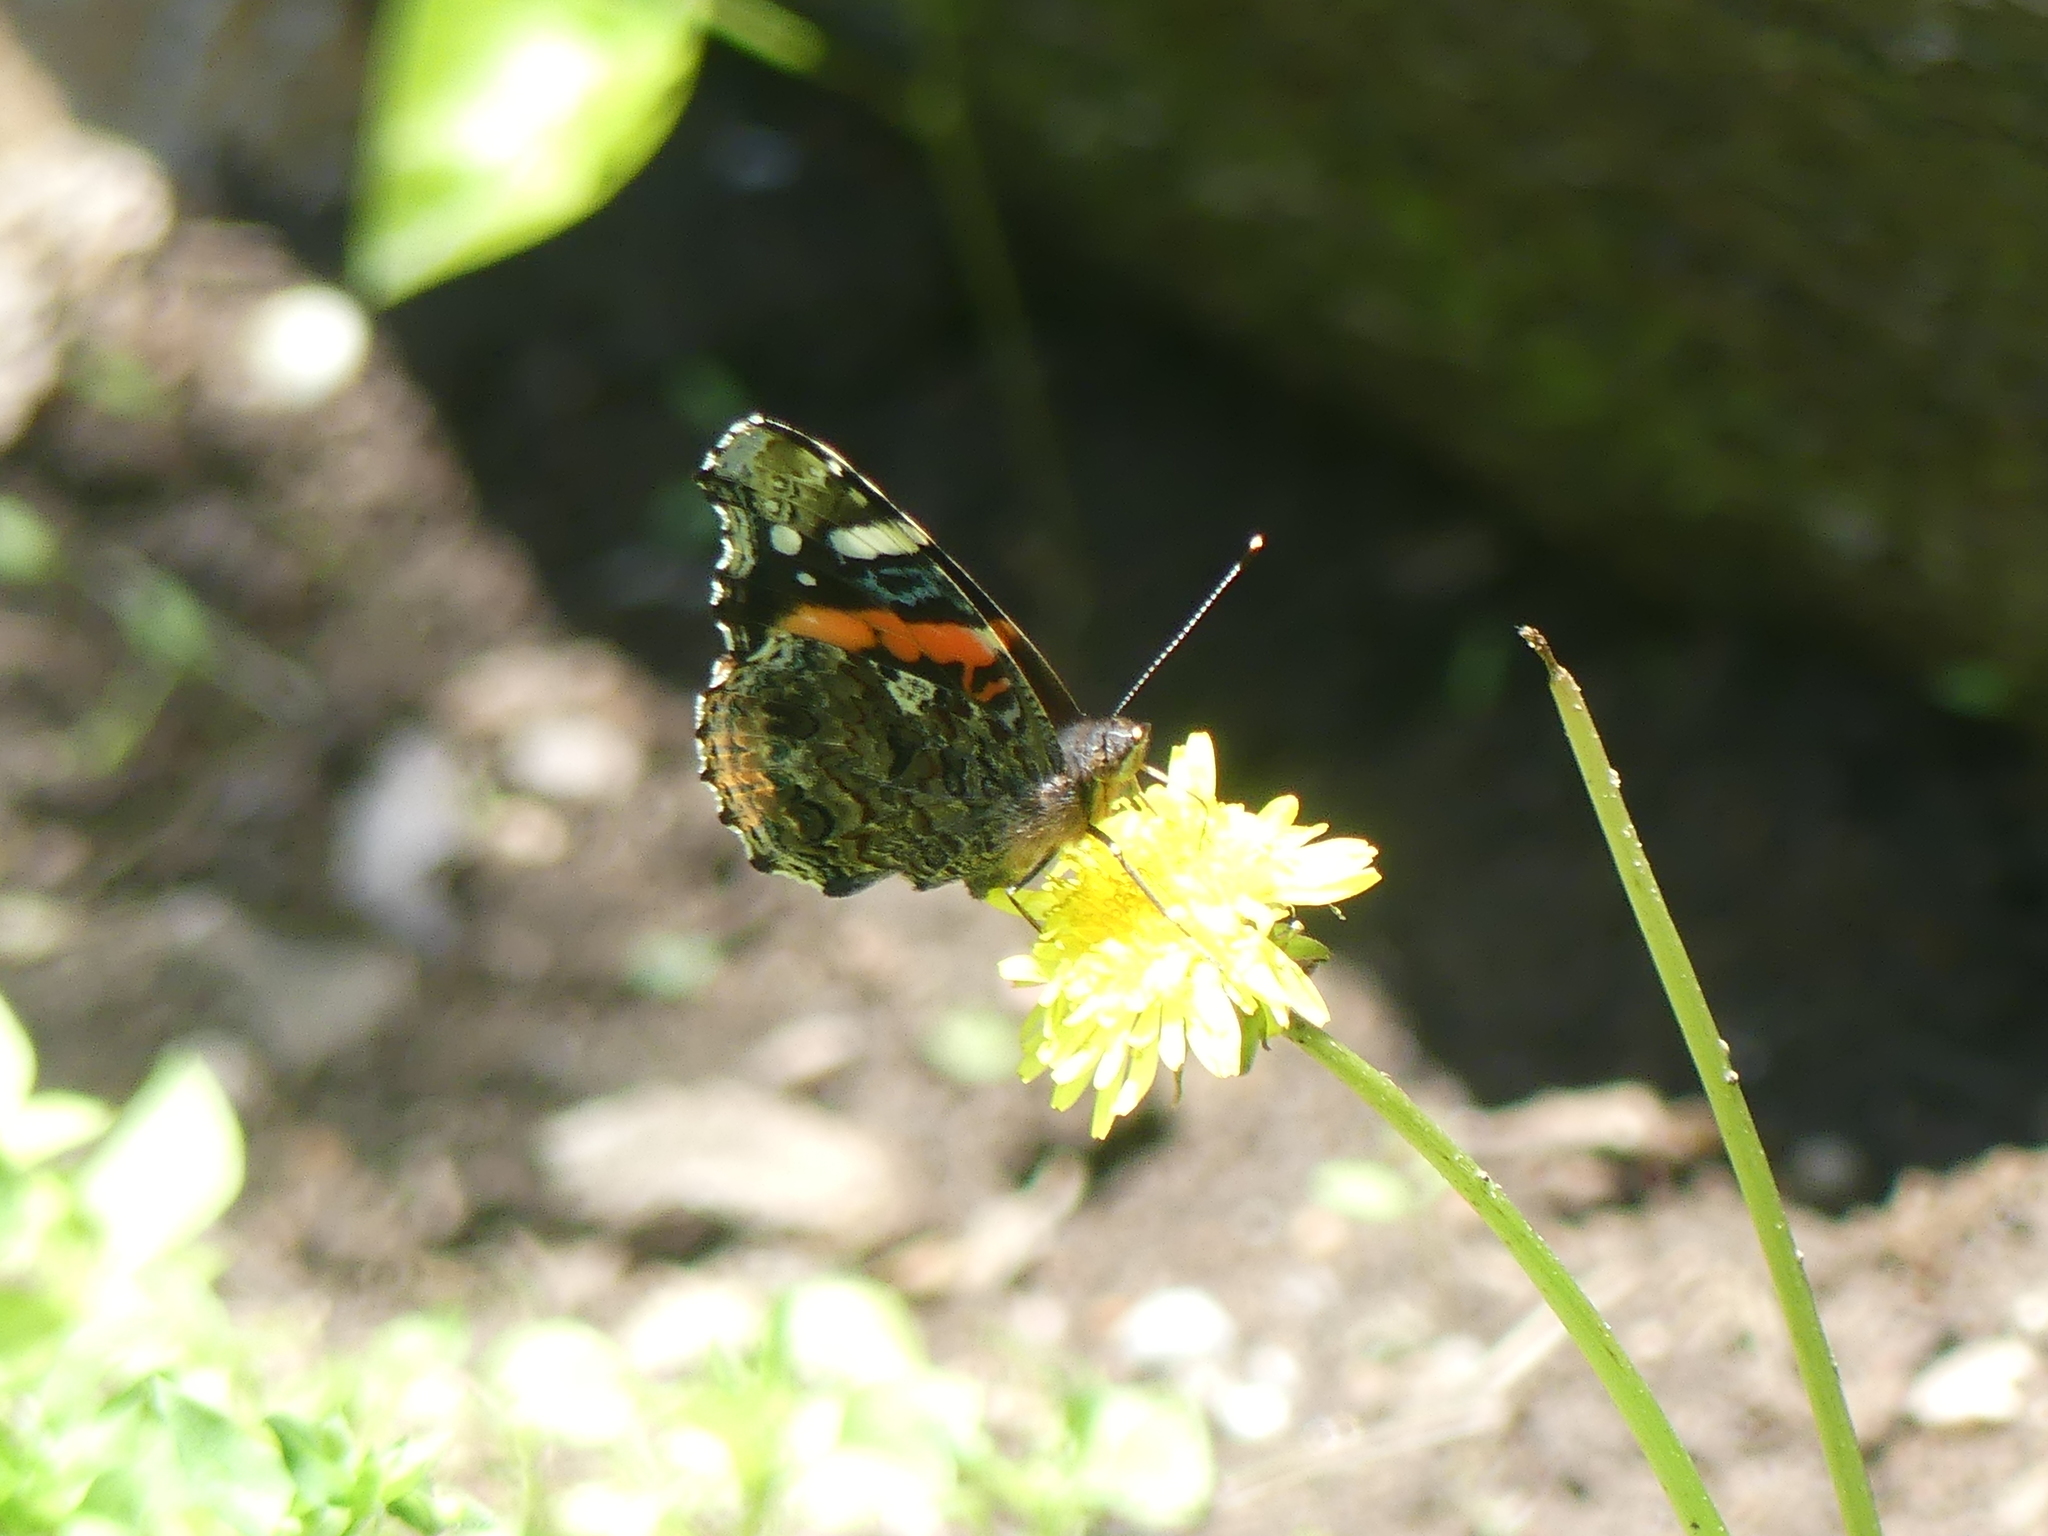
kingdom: Animalia
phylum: Arthropoda
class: Insecta
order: Lepidoptera
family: Nymphalidae
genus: Vanessa
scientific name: Vanessa atalanta
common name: Red admiral
